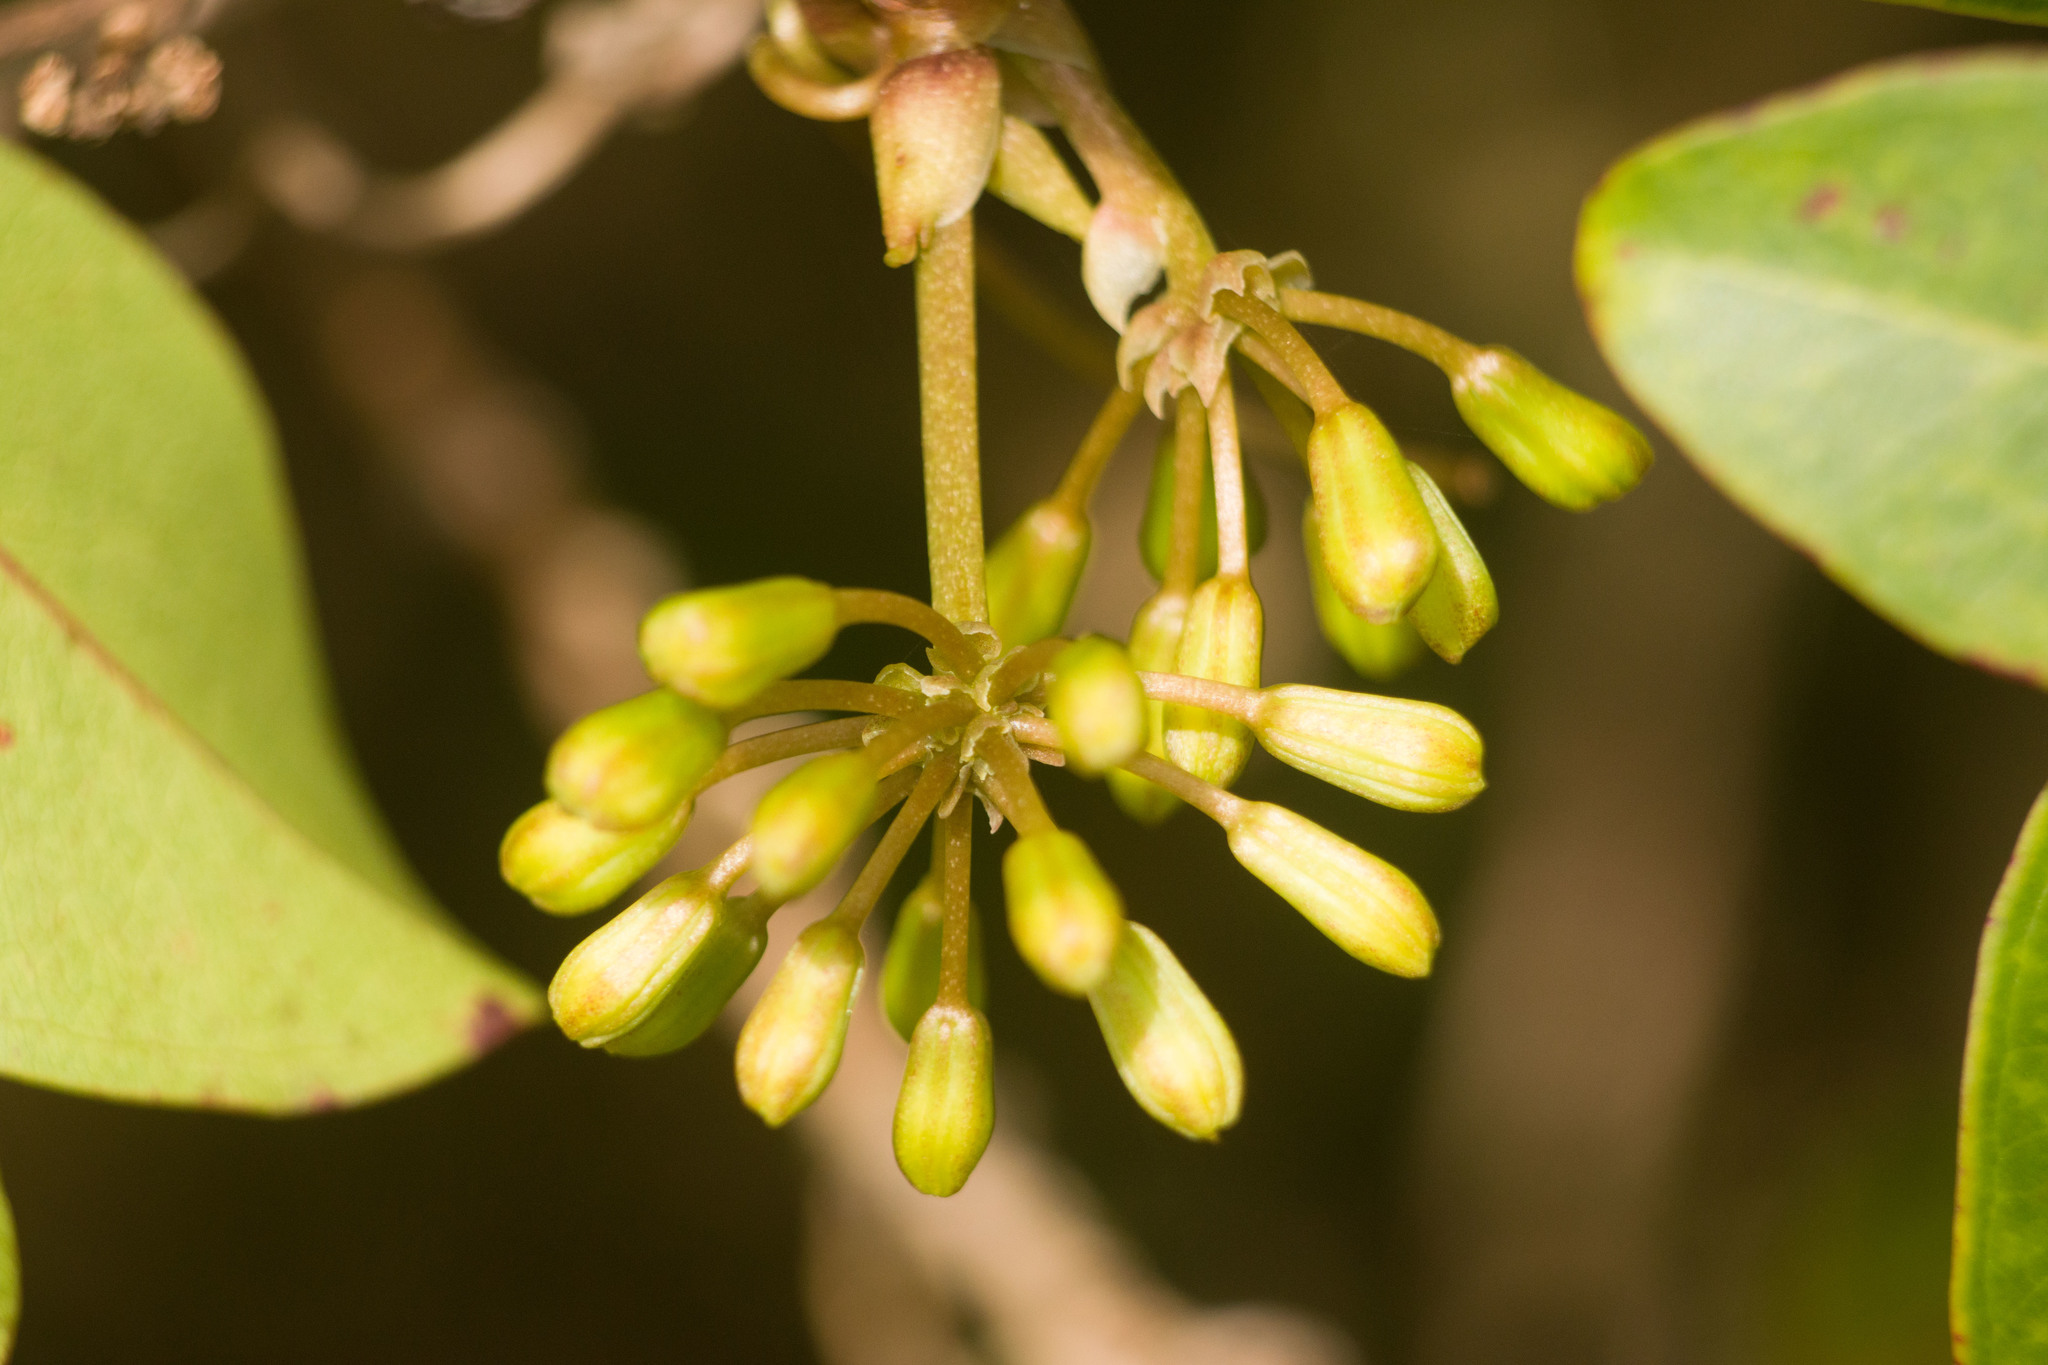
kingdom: Plantae
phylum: Tracheophyta
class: Liliopsida
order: Liliales
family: Smilacaceae
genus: Smilax
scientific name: Smilax melastomifolia
